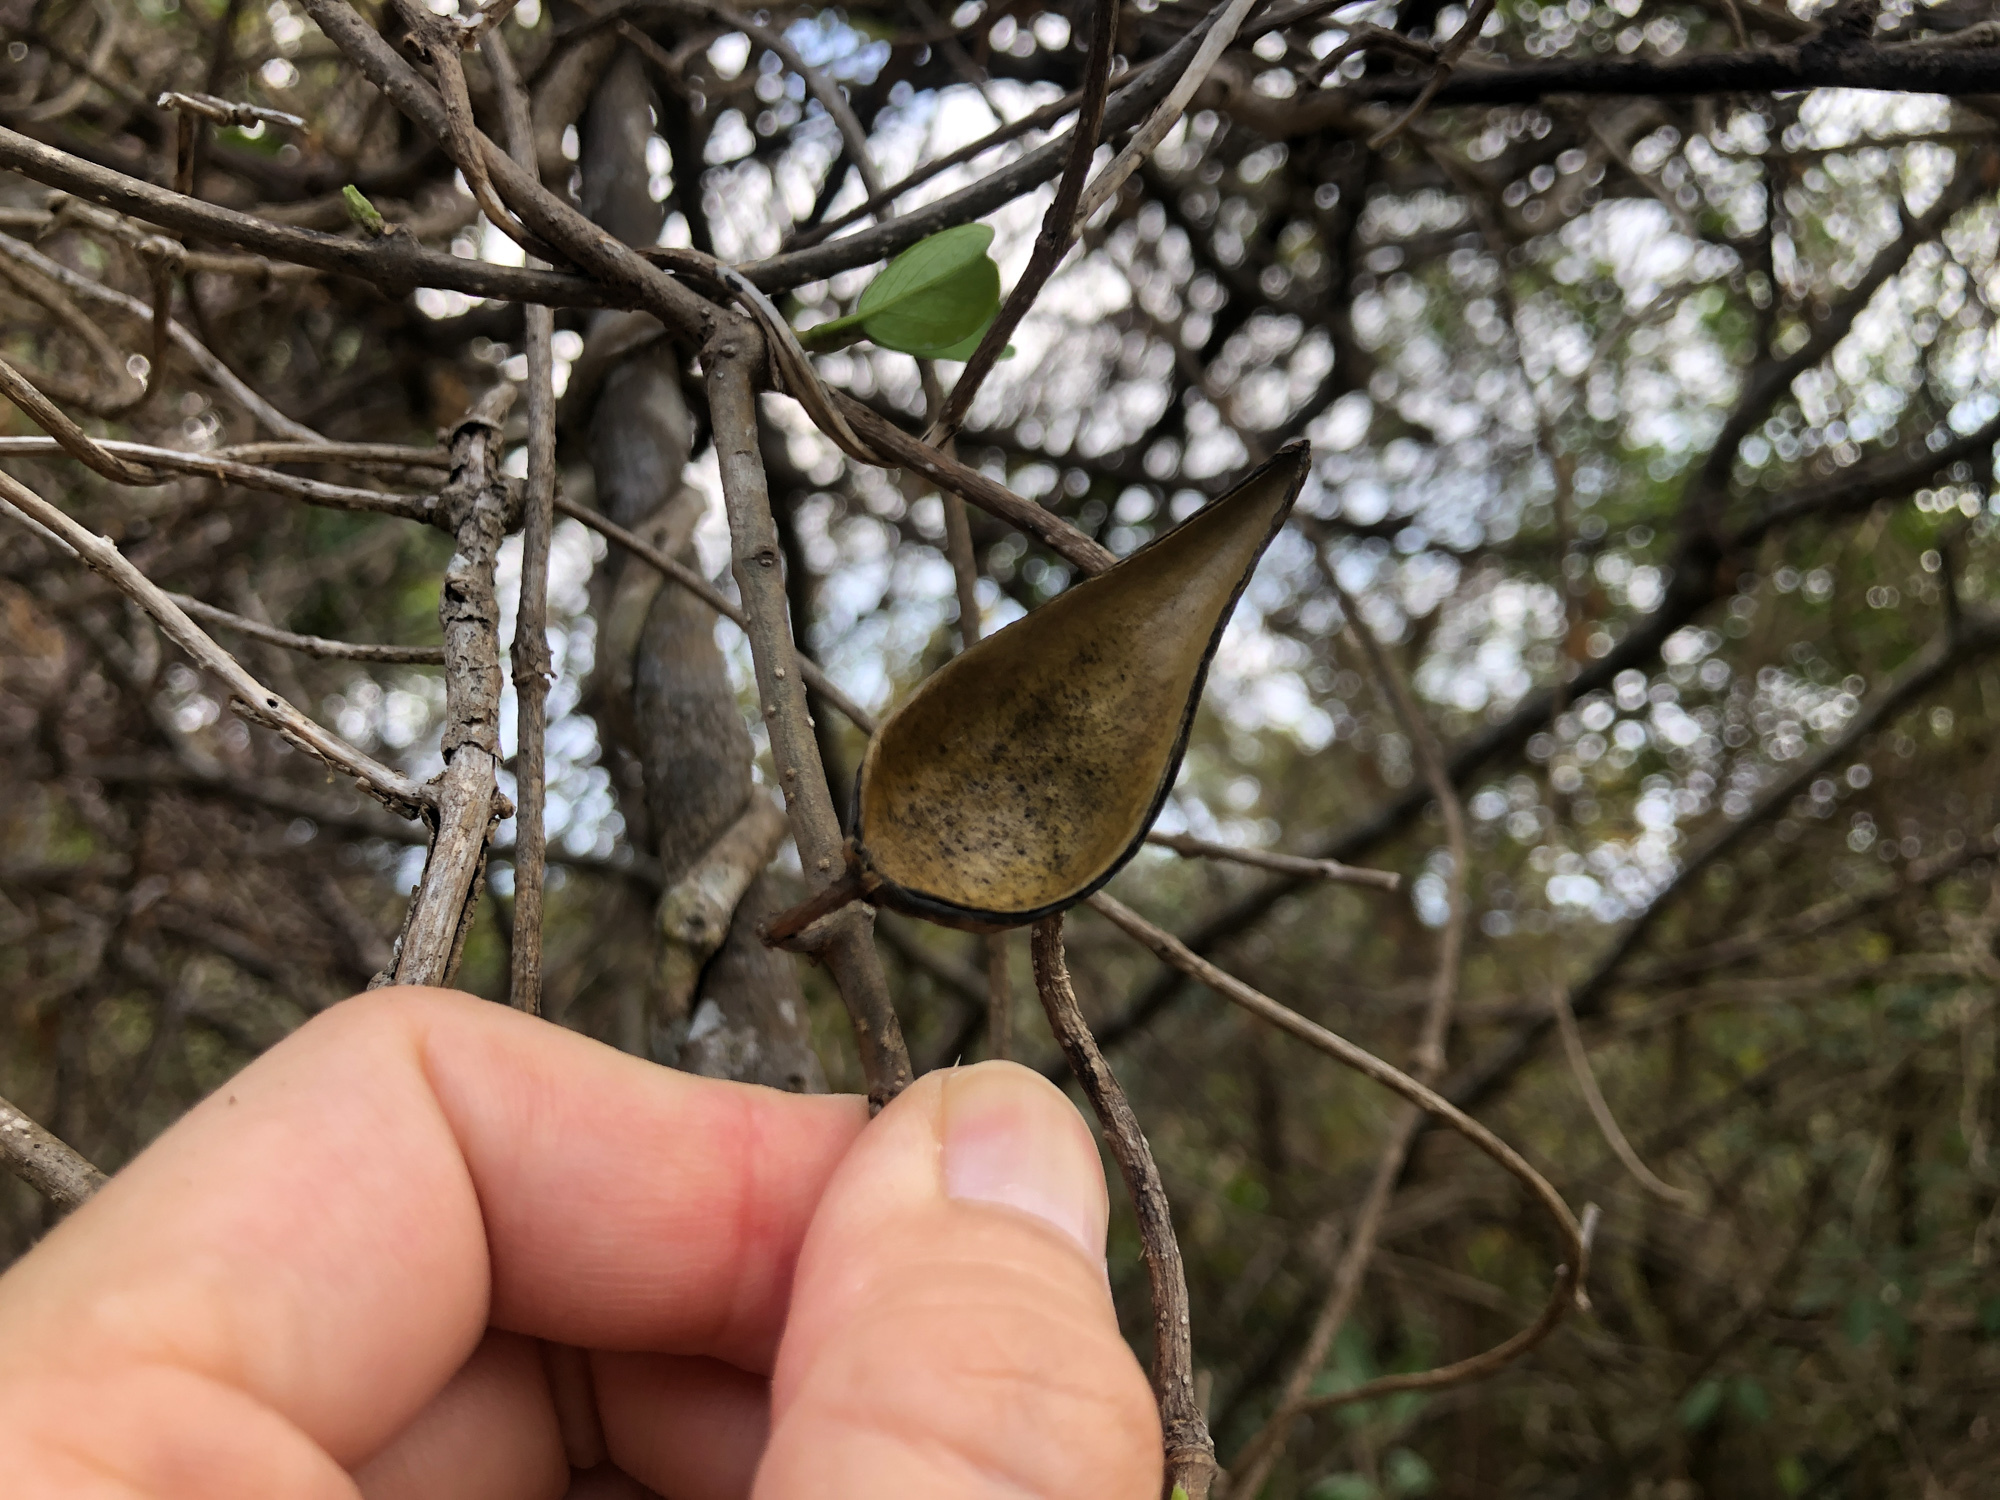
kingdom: Plantae
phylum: Tracheophyta
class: Magnoliopsida
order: Gentianales
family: Apocynaceae
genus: Gymnema
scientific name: Gymnema sylvestre
